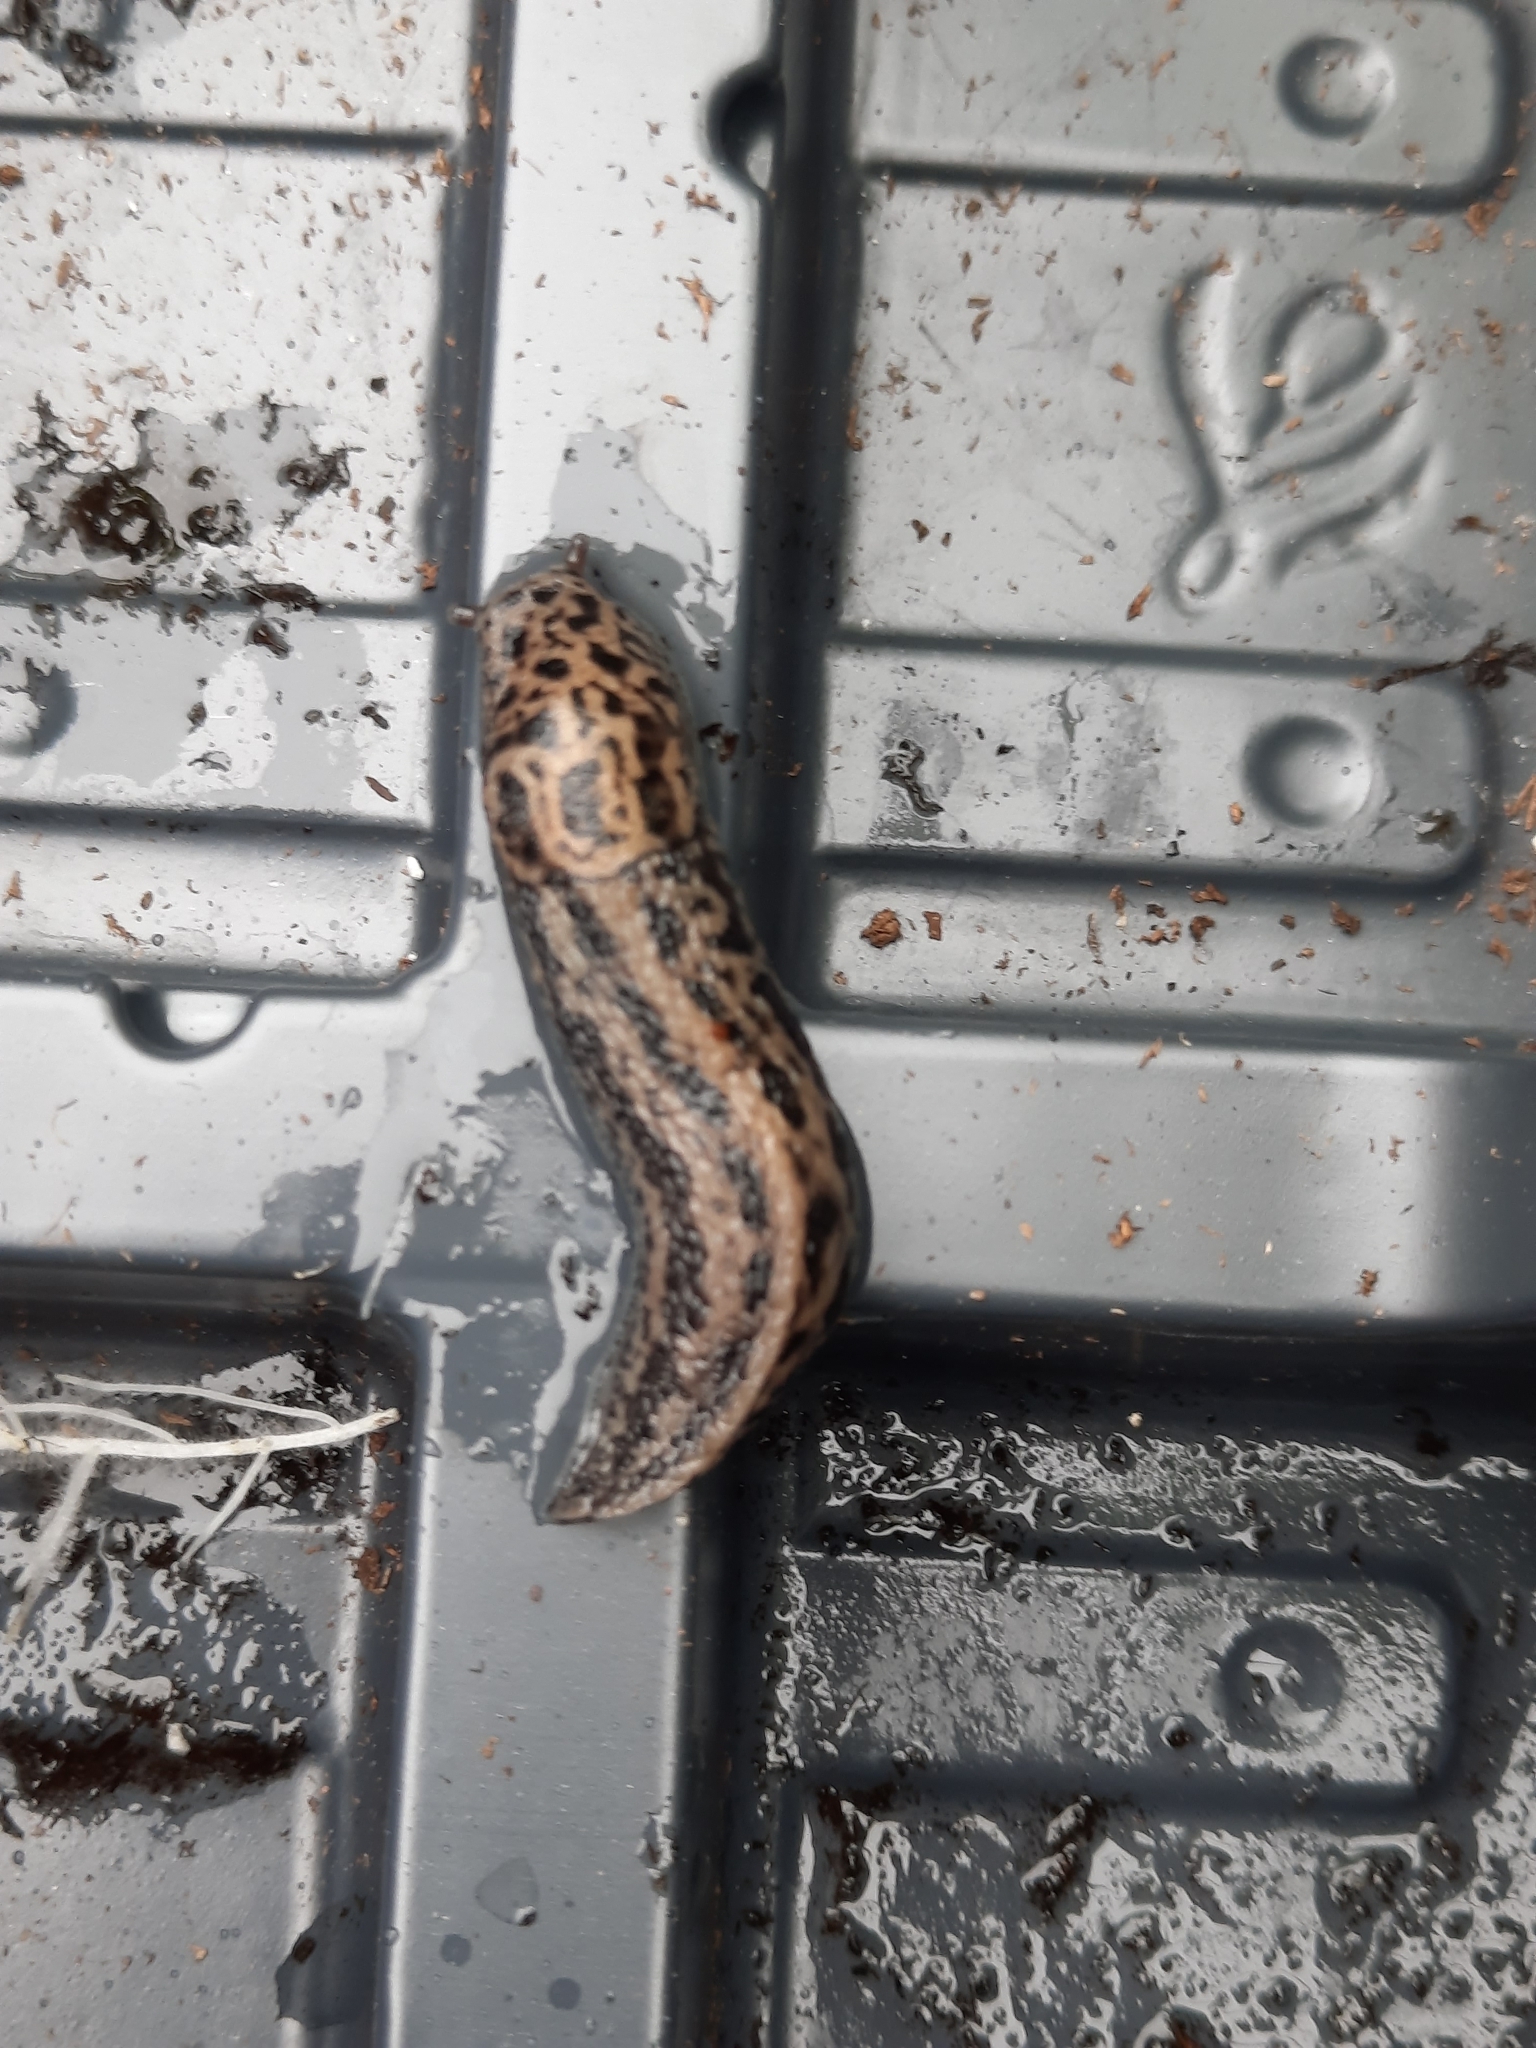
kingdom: Animalia
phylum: Mollusca
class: Gastropoda
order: Stylommatophora
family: Limacidae
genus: Limax
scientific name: Limax maximus
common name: Great grey slug
